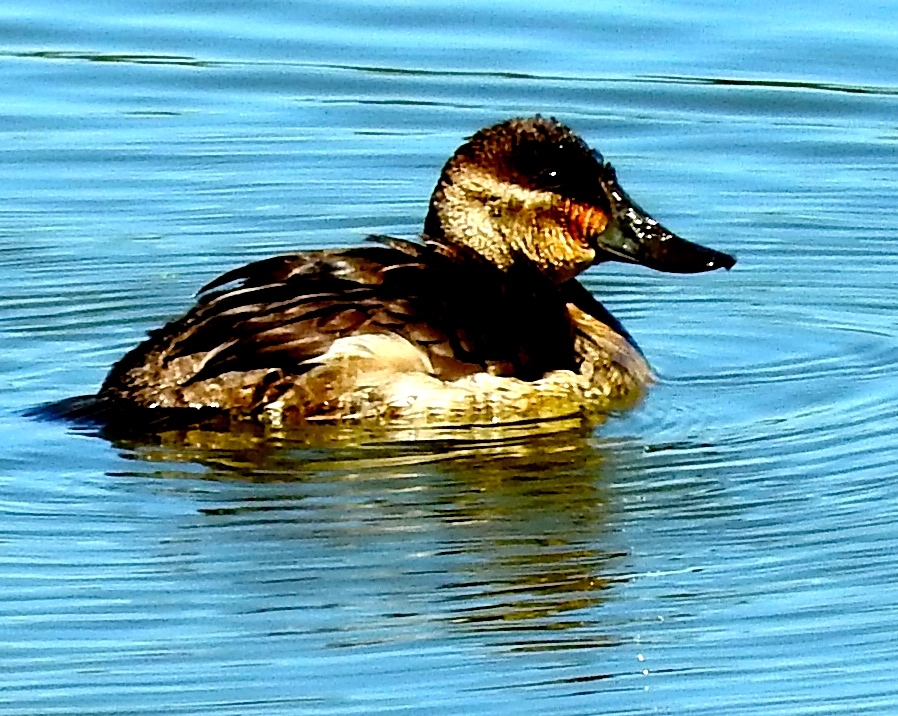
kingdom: Animalia
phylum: Chordata
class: Aves
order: Anseriformes
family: Anatidae
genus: Oxyura
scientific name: Oxyura jamaicensis
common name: Ruddy duck
